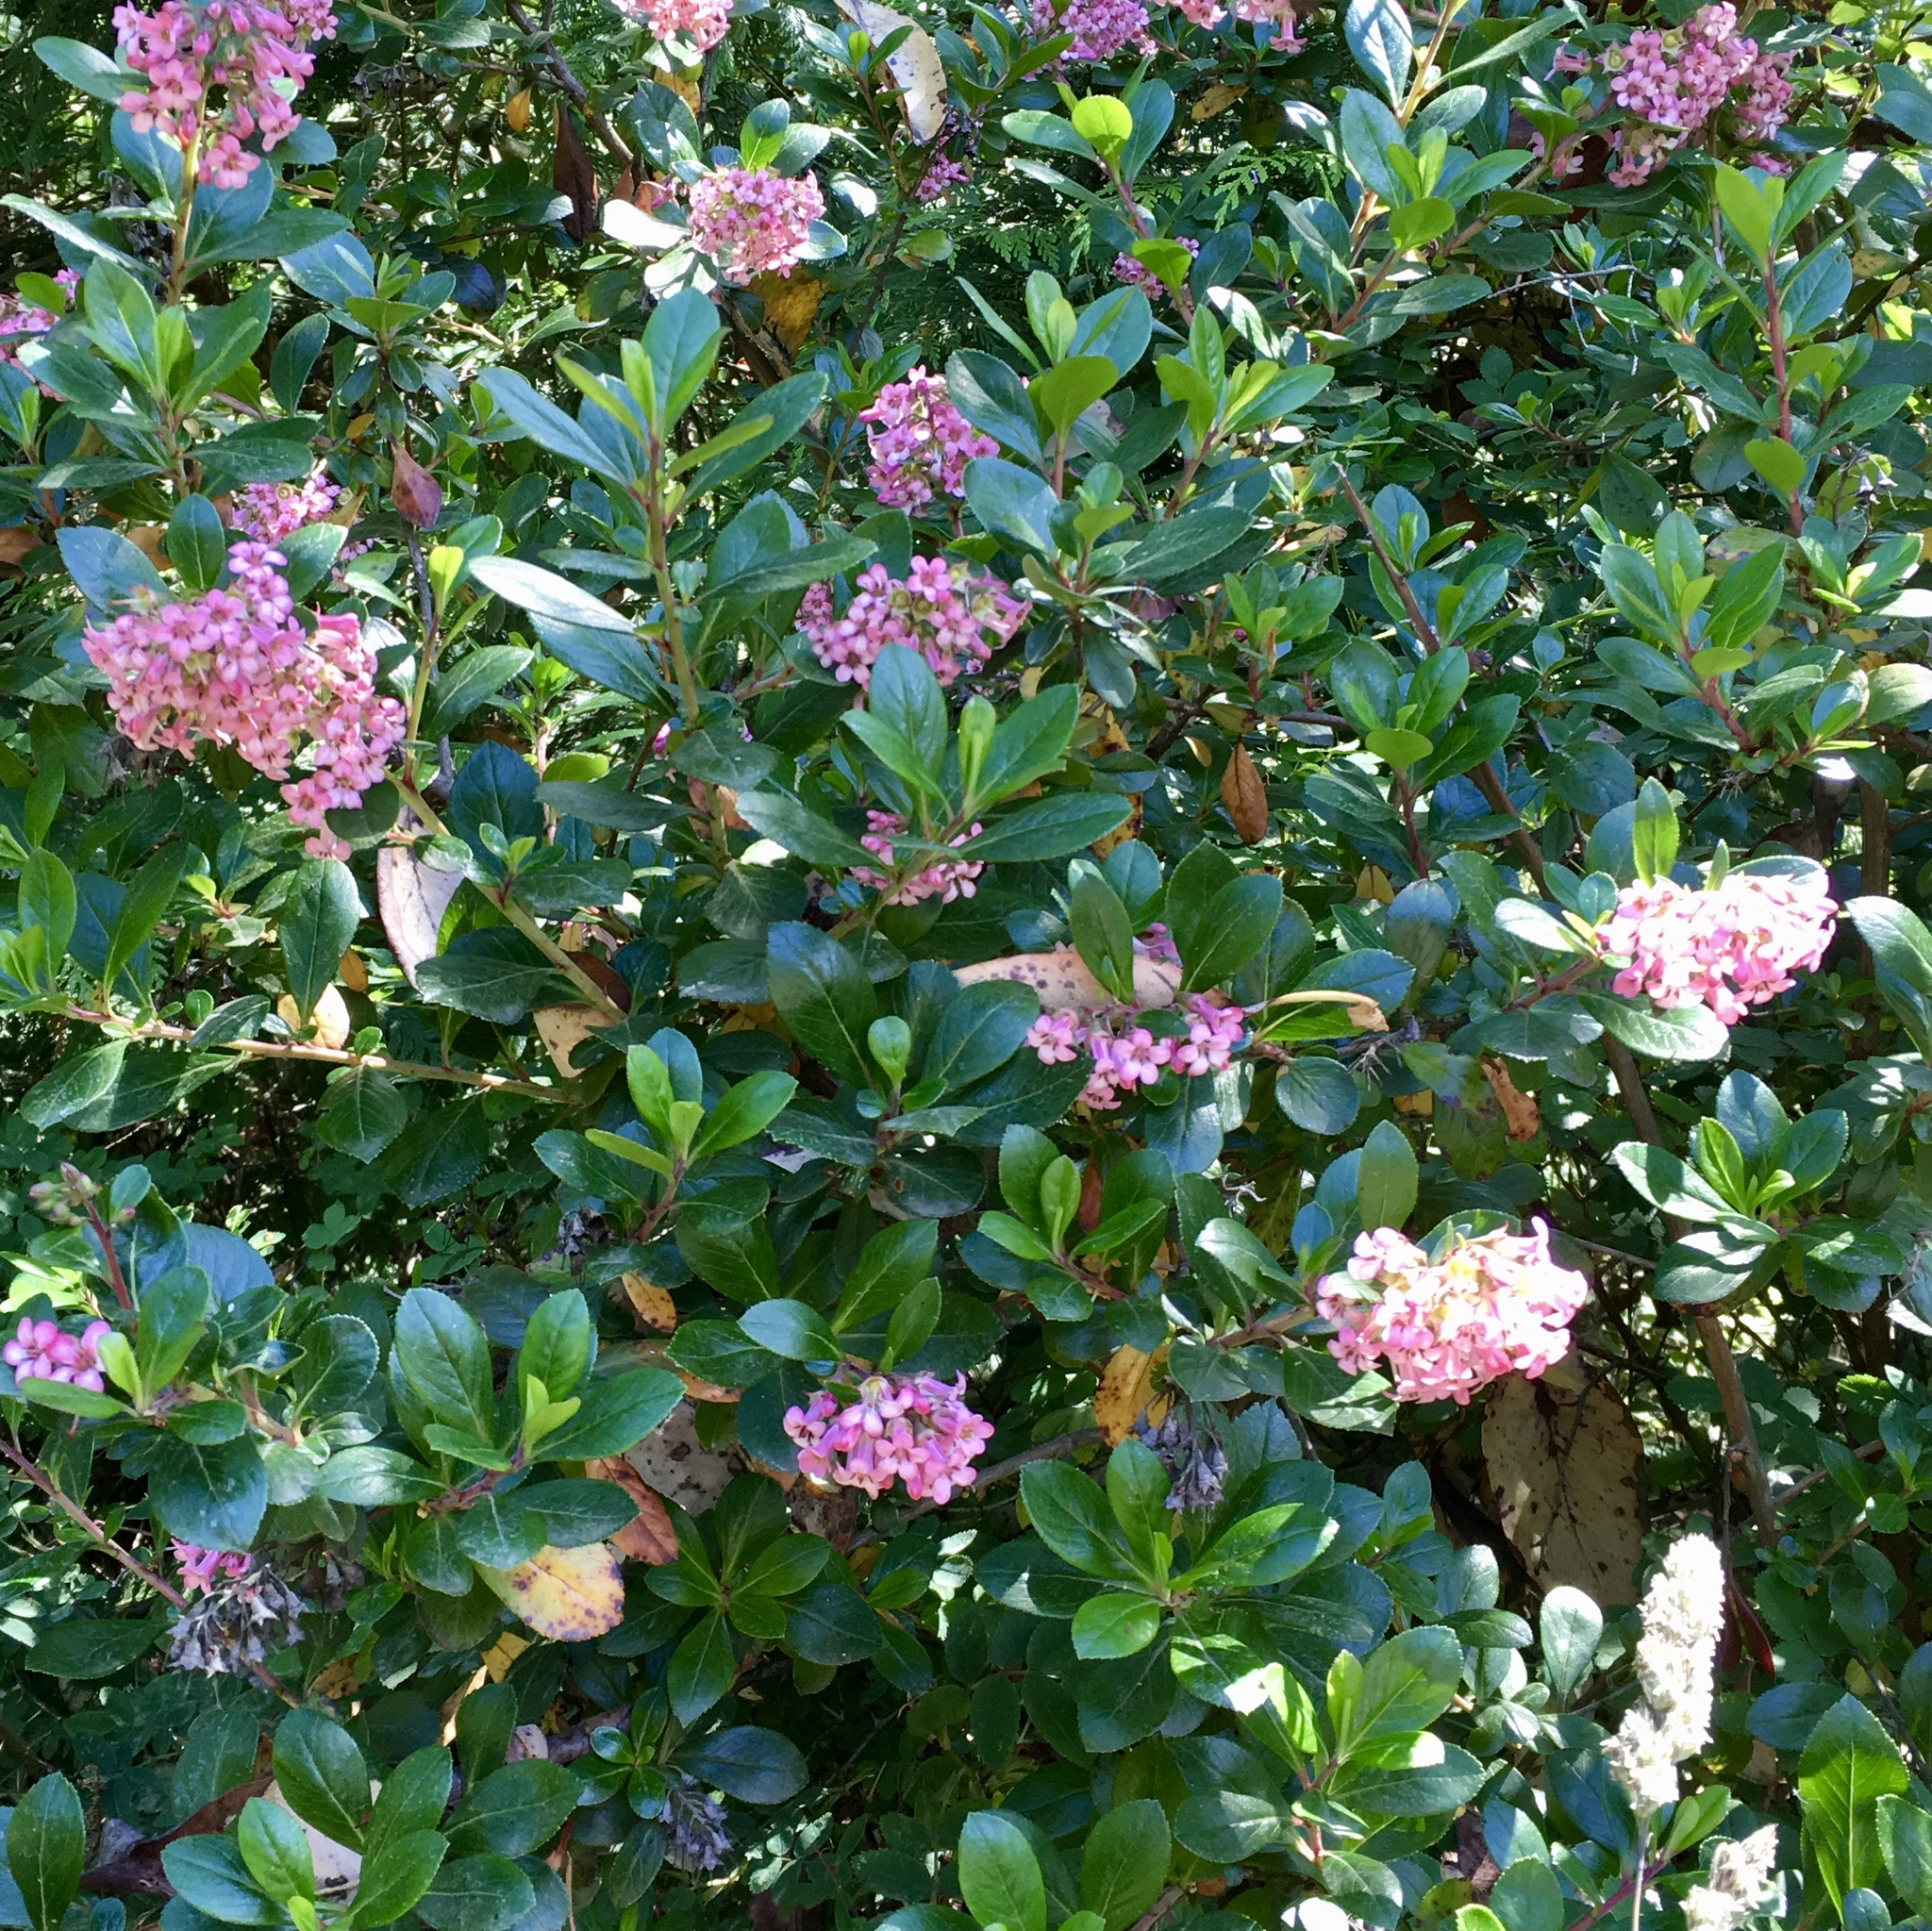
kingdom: Plantae
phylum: Tracheophyta
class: Magnoliopsida
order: Escalloniales
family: Escalloniaceae
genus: Escallonia
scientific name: Escallonia rubra
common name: Redclaws
